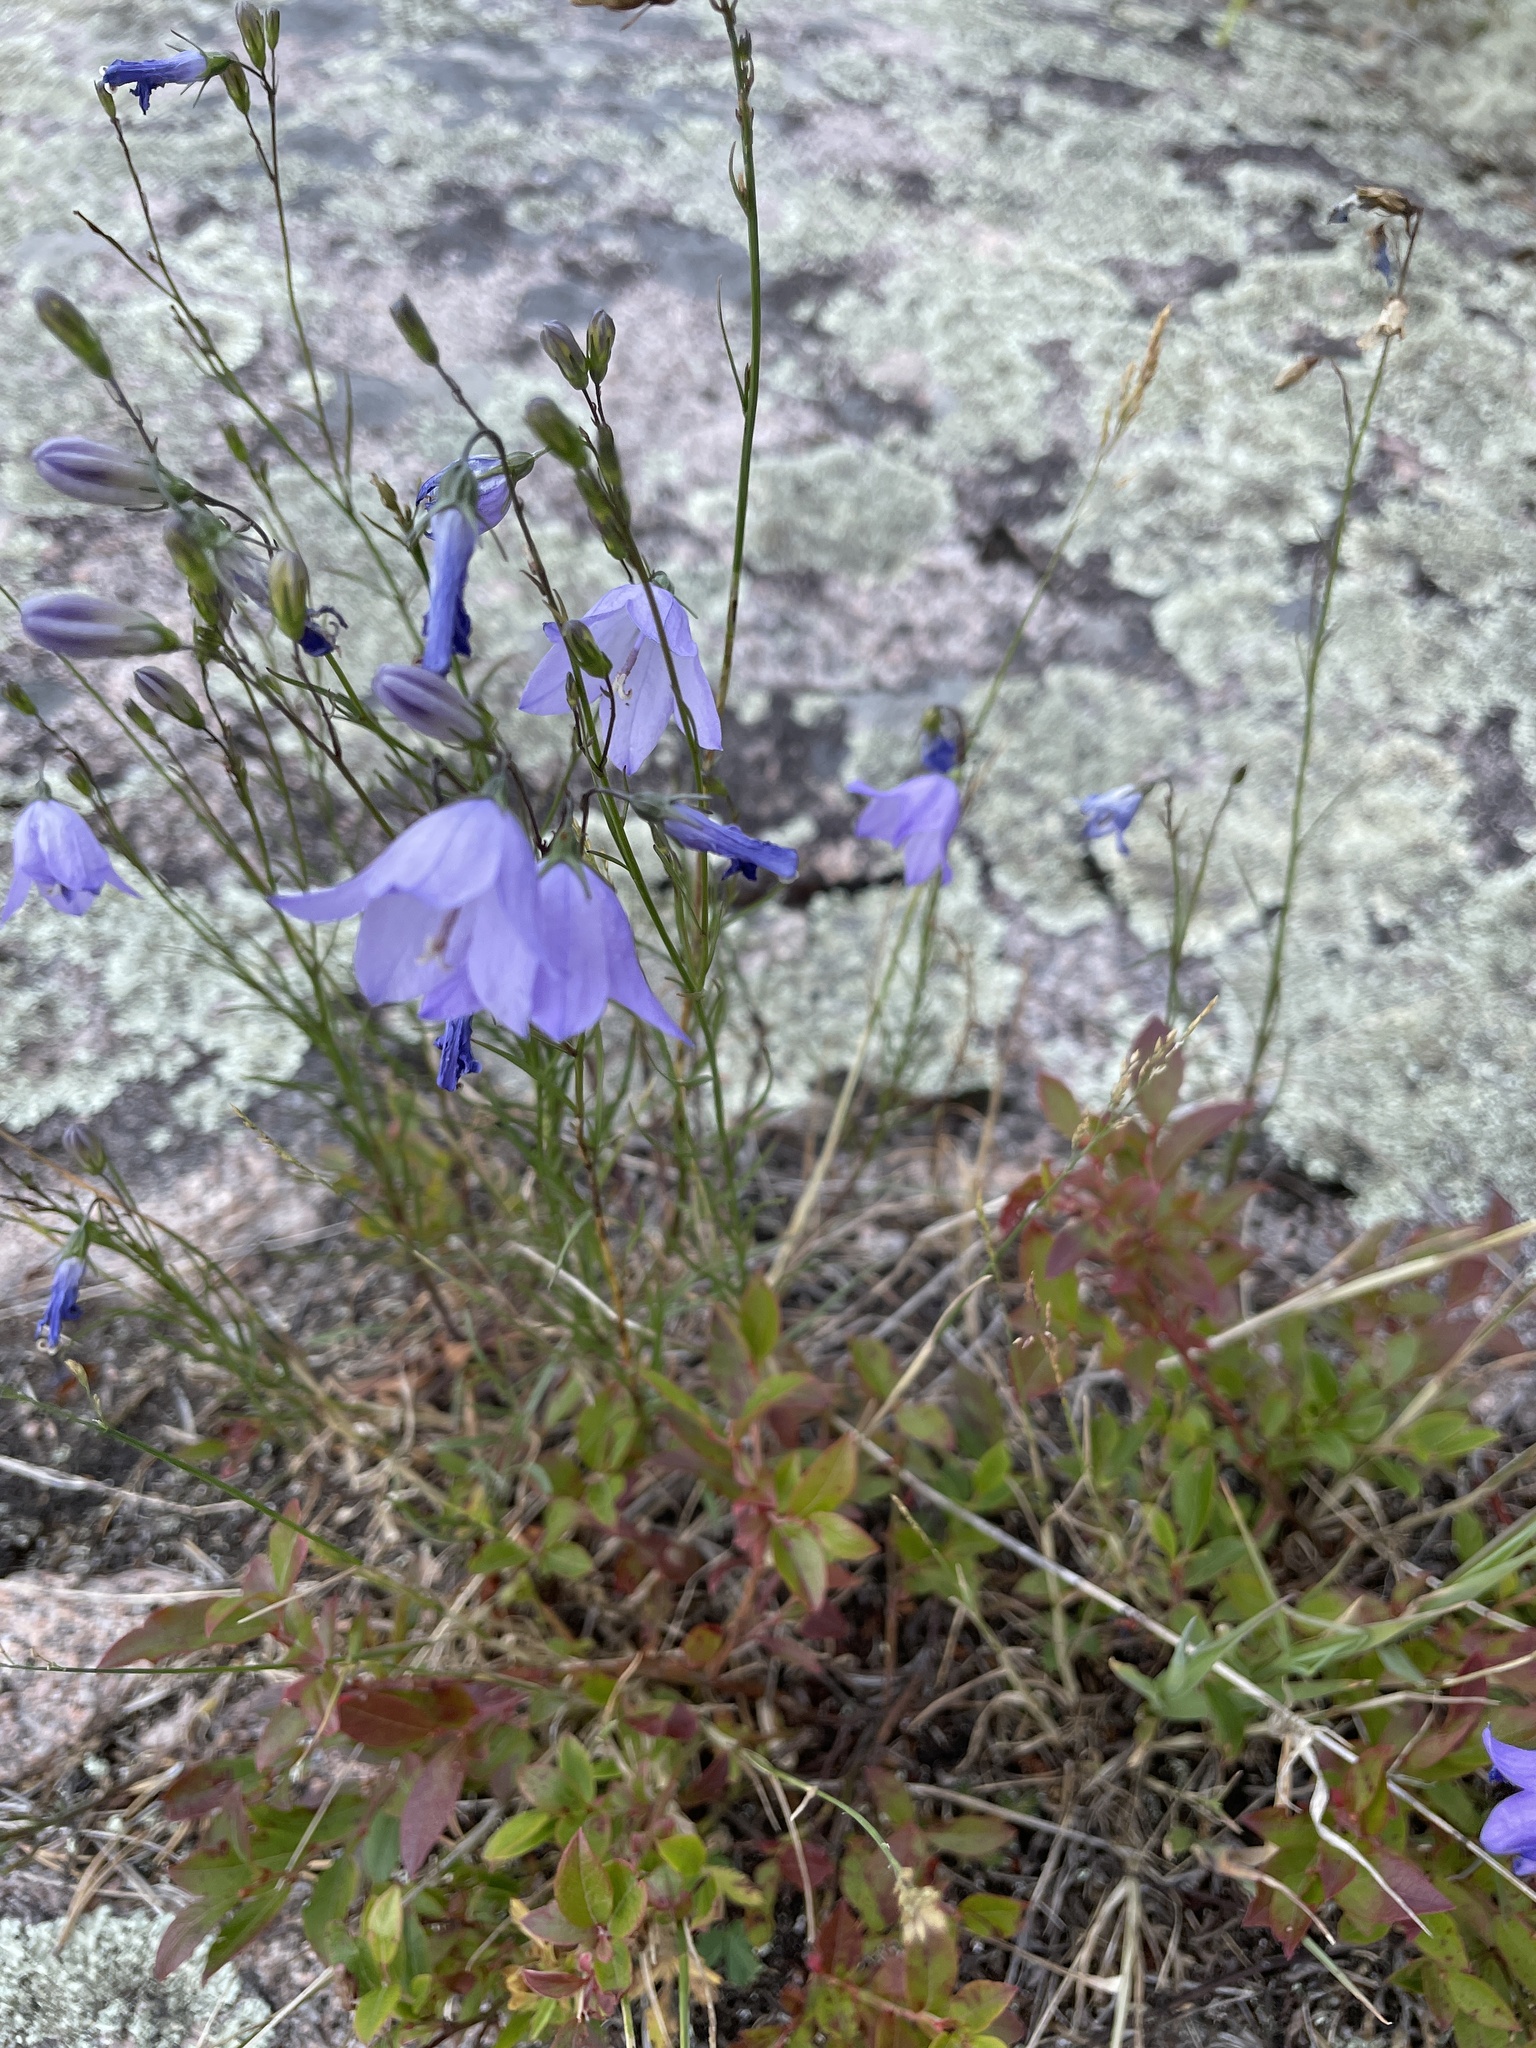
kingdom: Plantae
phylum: Tracheophyta
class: Magnoliopsida
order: Asterales
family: Campanulaceae
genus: Campanula
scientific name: Campanula petiolata
